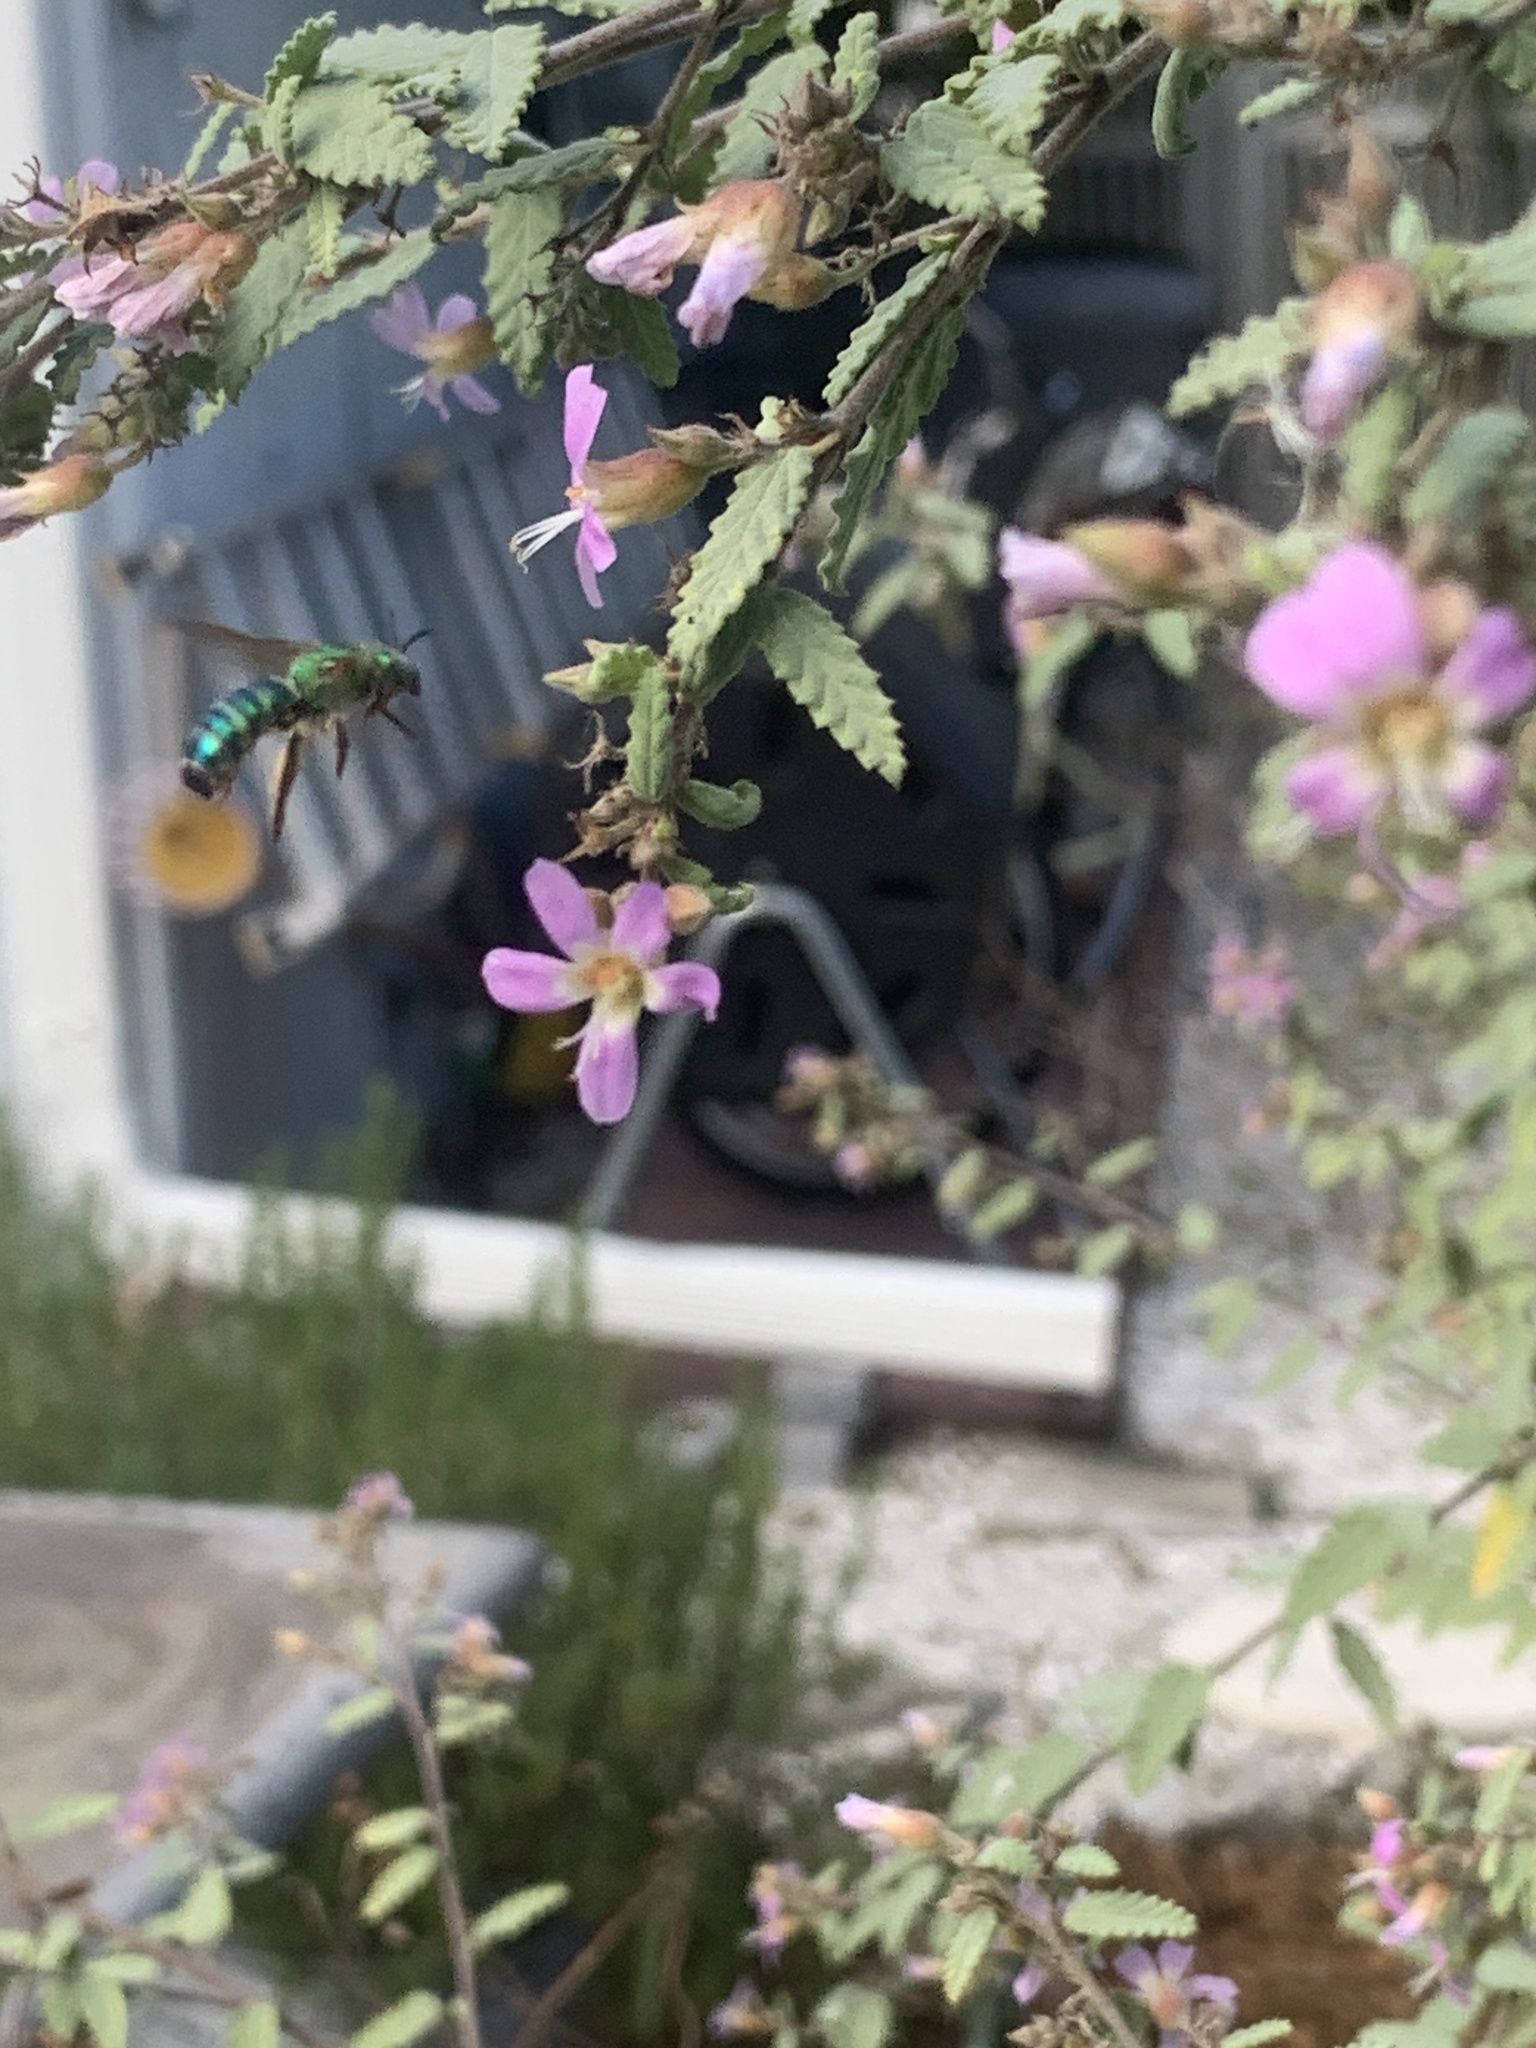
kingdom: Animalia
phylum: Arthropoda
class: Insecta
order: Hymenoptera
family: Halictidae
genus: Agapostemon
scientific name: Agapostemon splendens
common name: Brown-winged striped sweat bee
